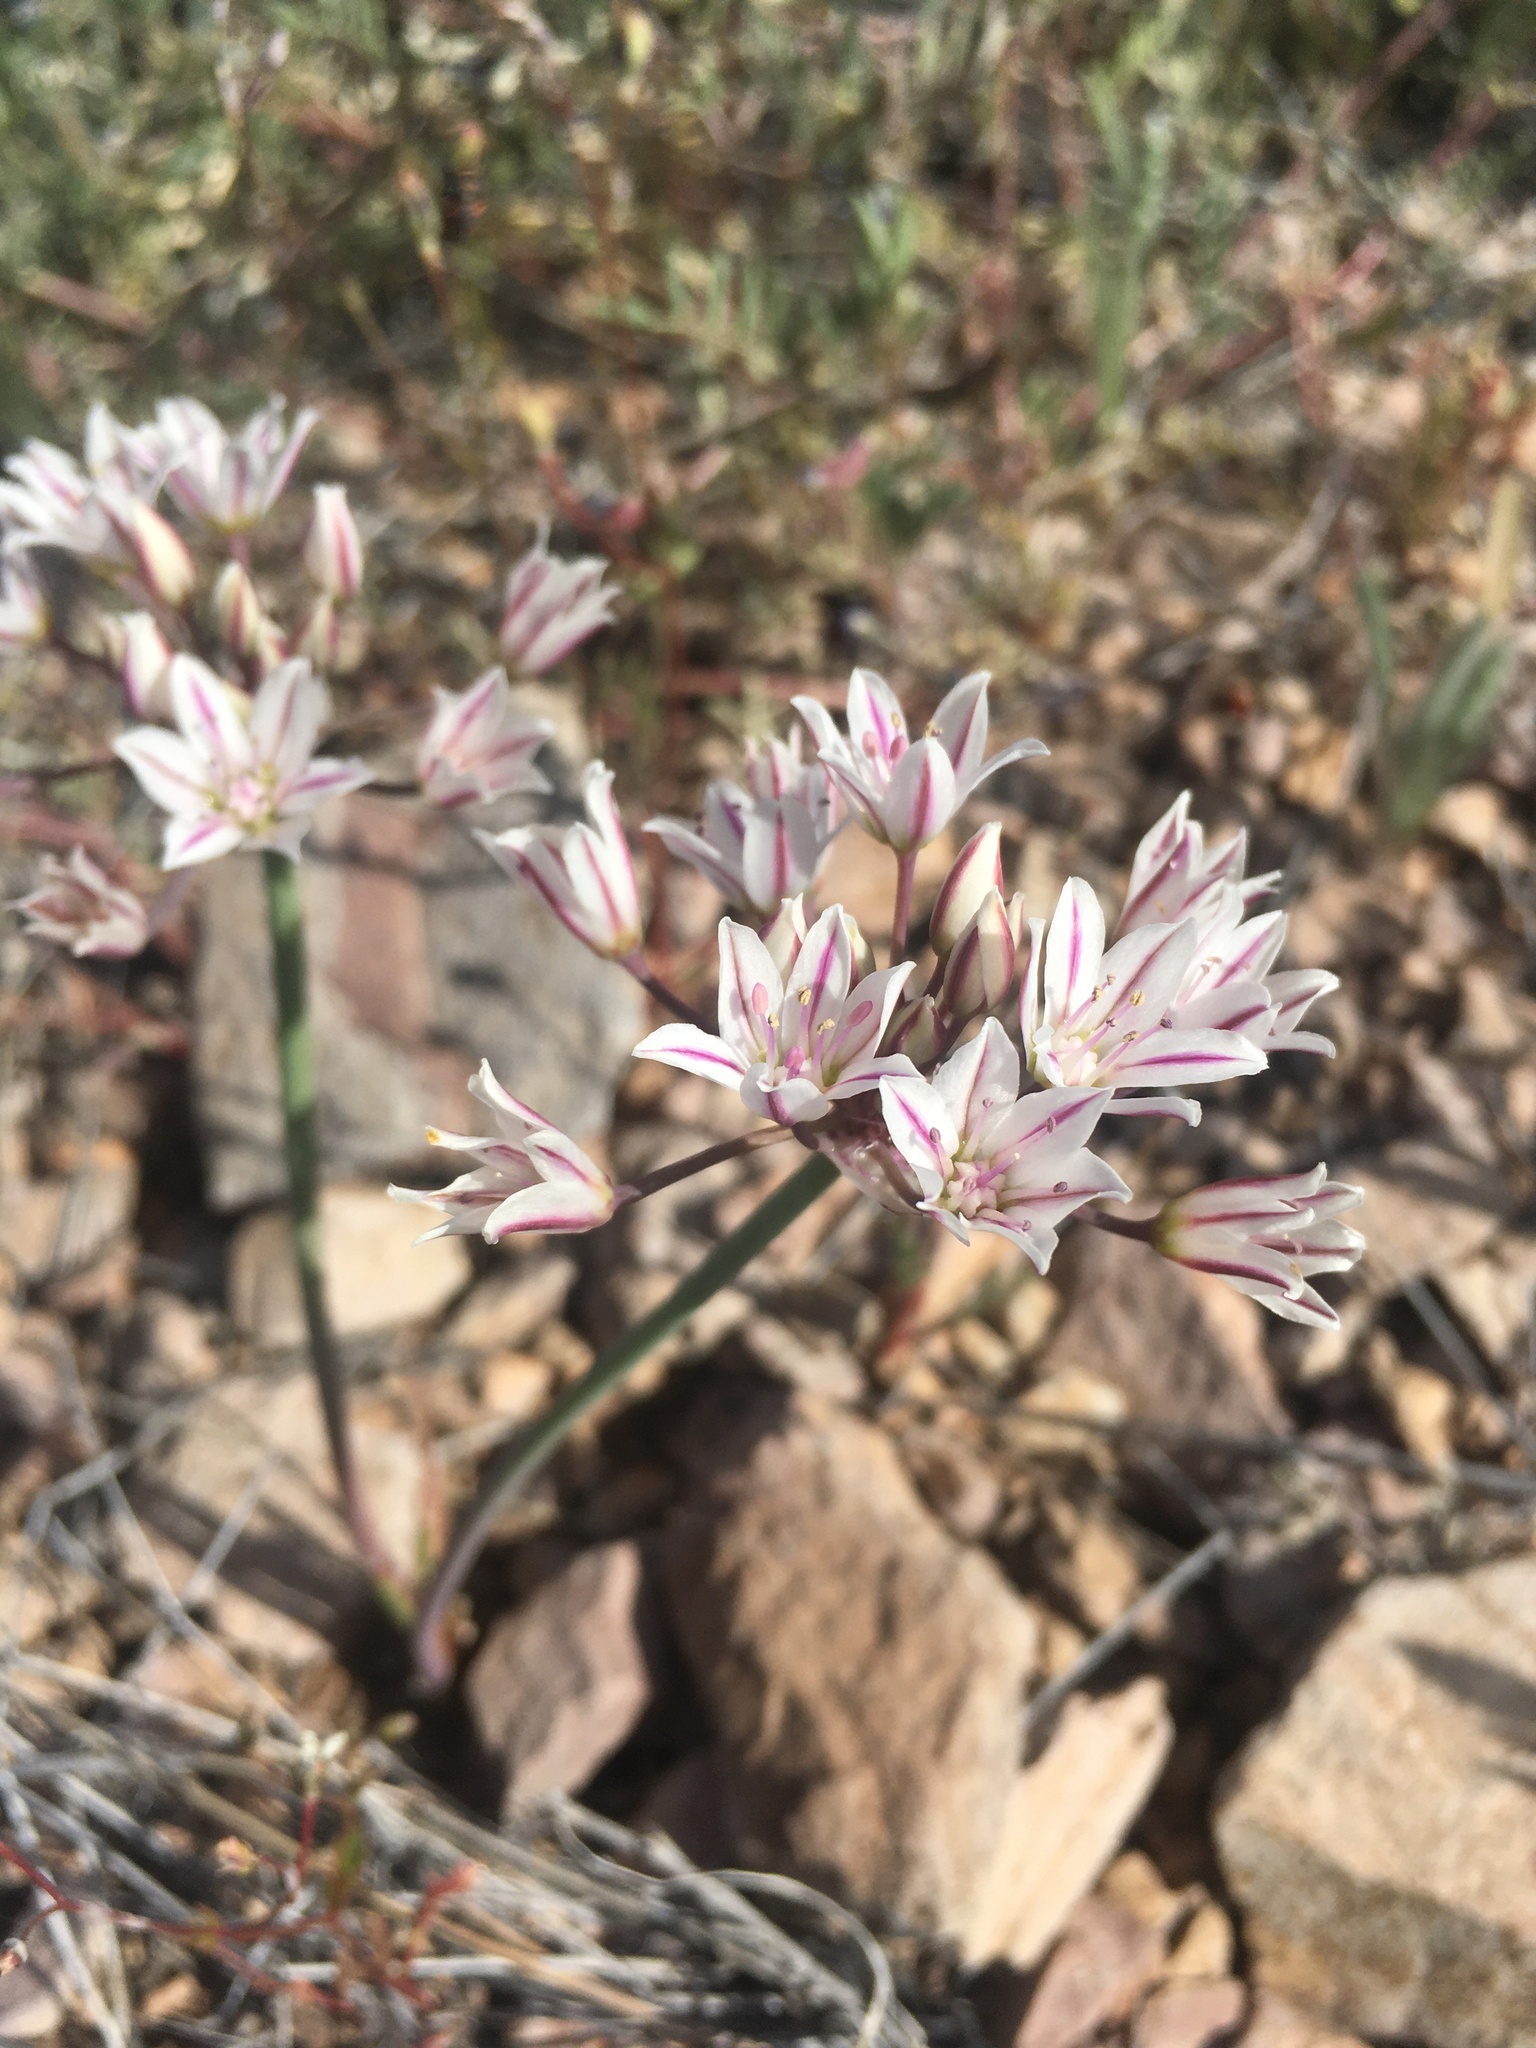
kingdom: Plantae
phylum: Tracheophyta
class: Liliopsida
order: Asparagales
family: Amaryllidaceae
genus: Allium
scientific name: Allium macropetalum
